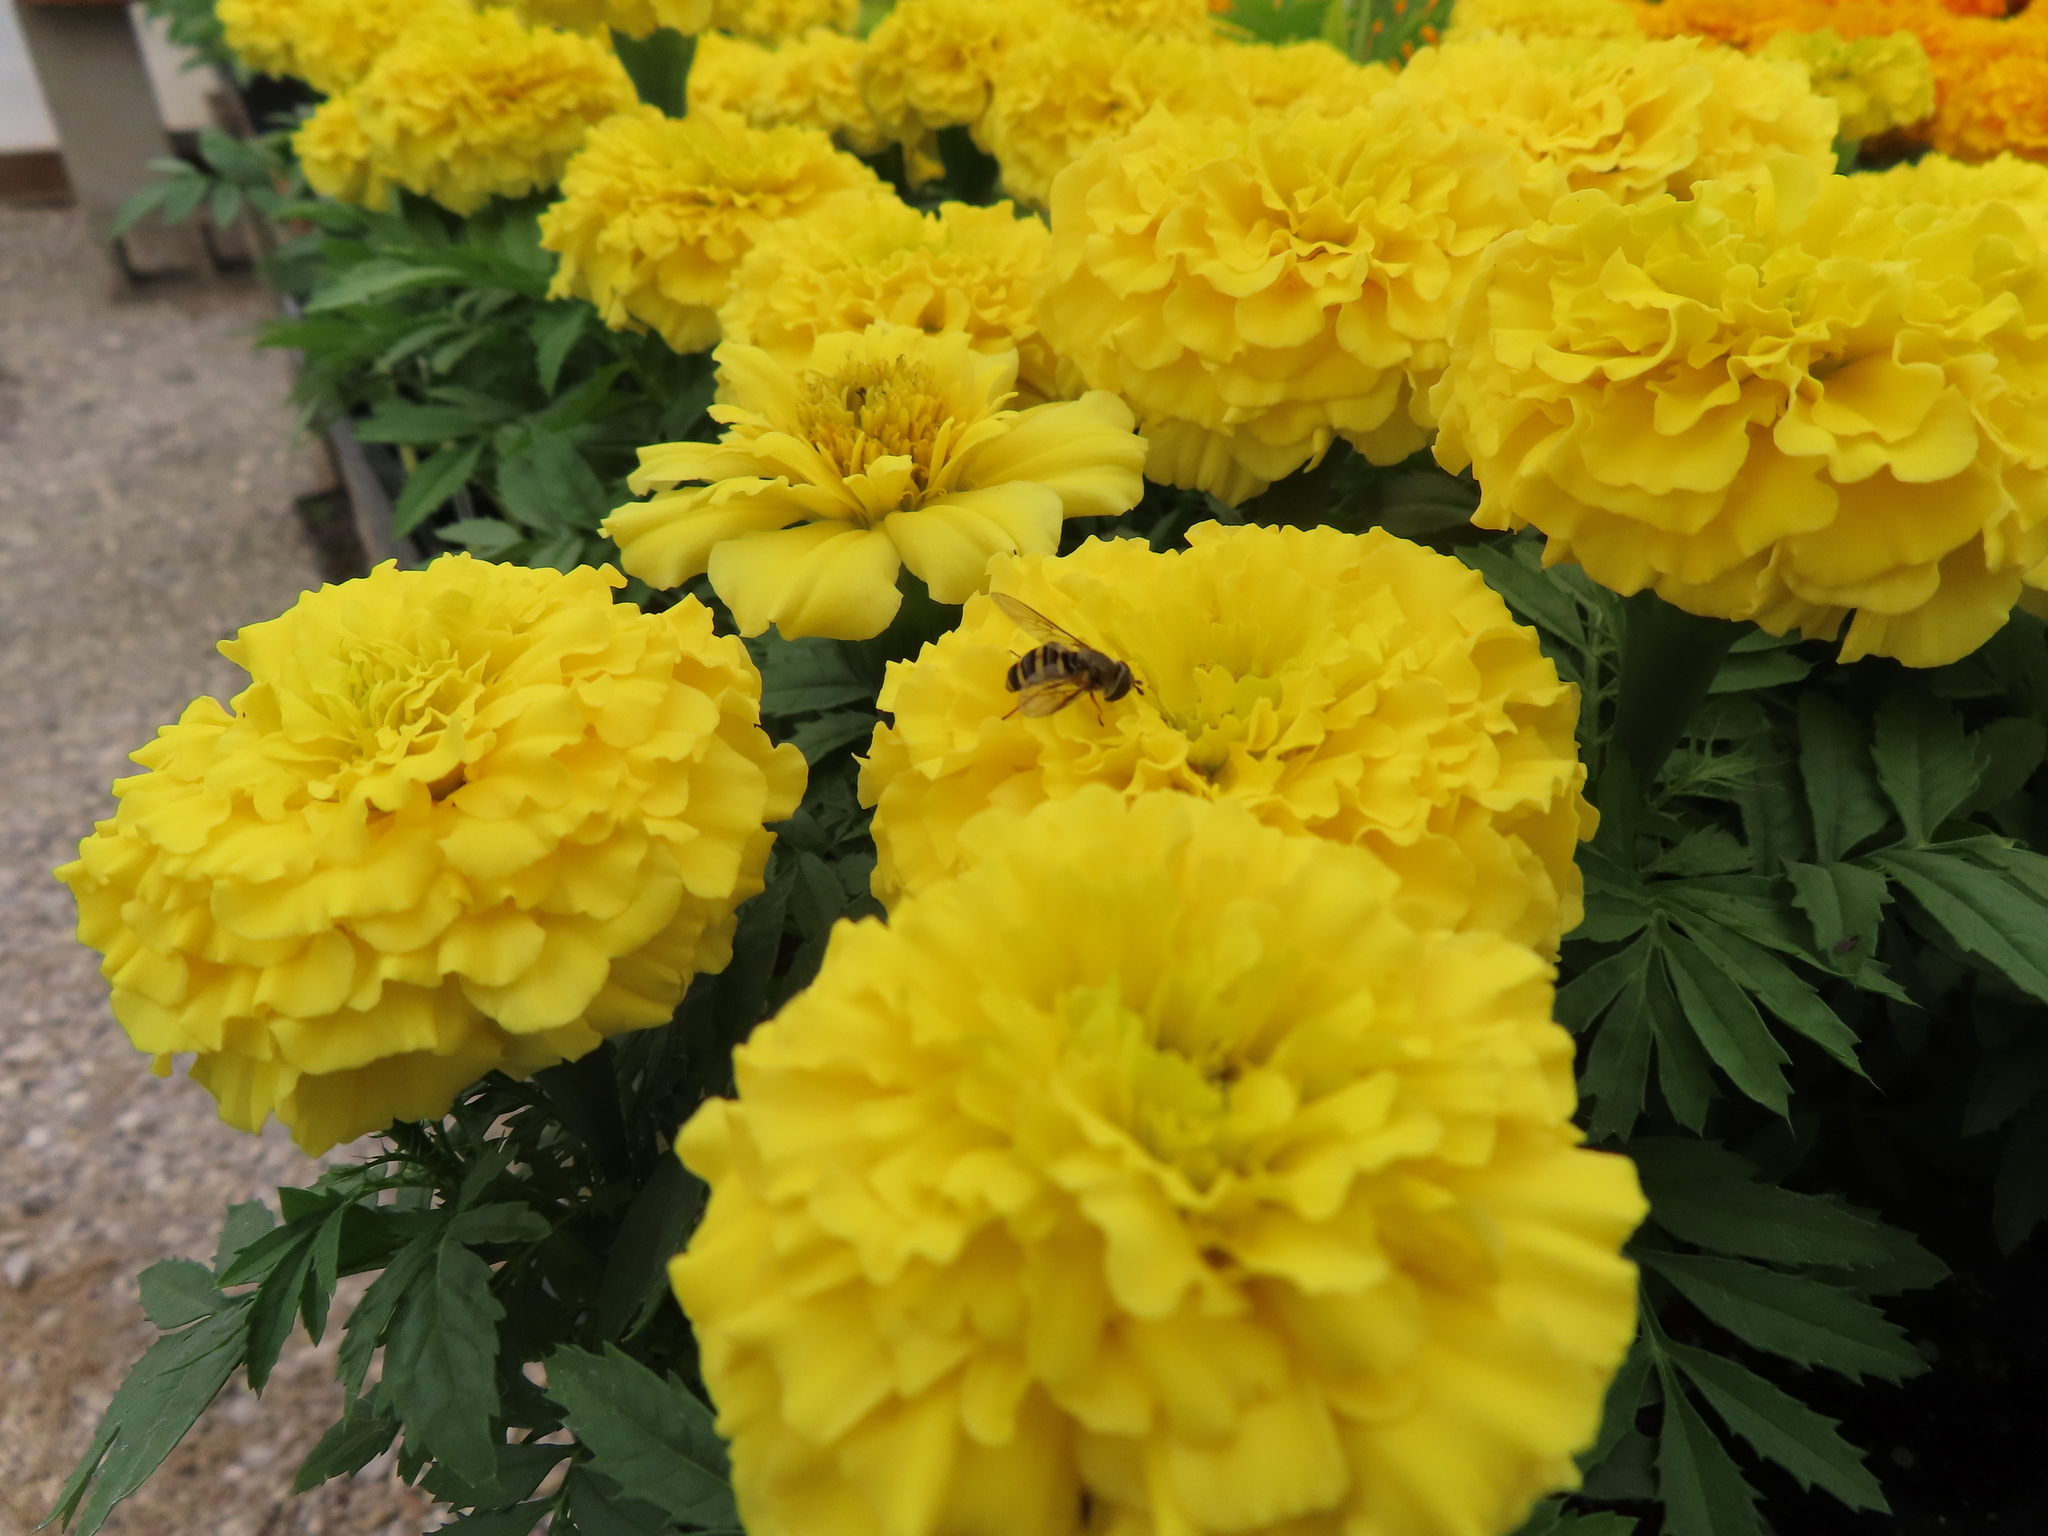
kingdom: Animalia
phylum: Arthropoda
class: Insecta
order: Diptera
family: Syrphidae
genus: Eupeodes
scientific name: Eupeodes
